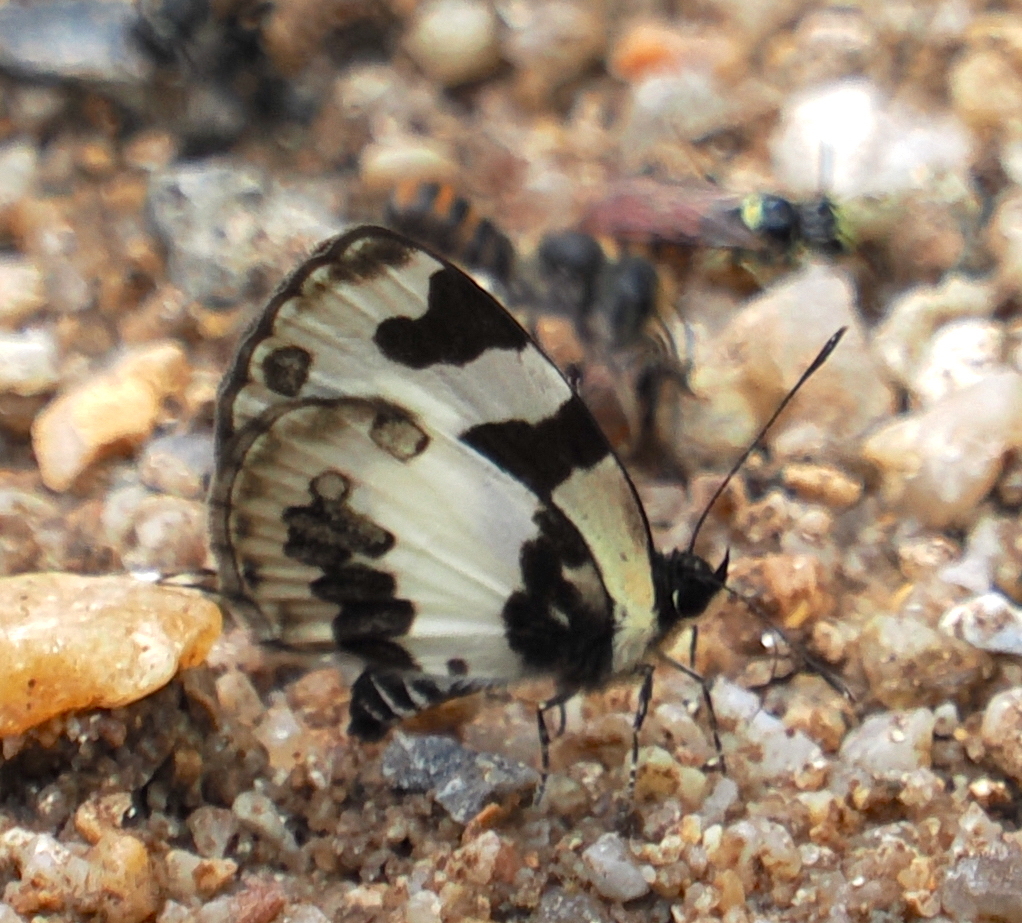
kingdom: Animalia
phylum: Arthropoda
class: Insecta
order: Lepidoptera
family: Lycaenidae
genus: Caleta
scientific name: Caleta elna
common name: Elbowed pierrot
